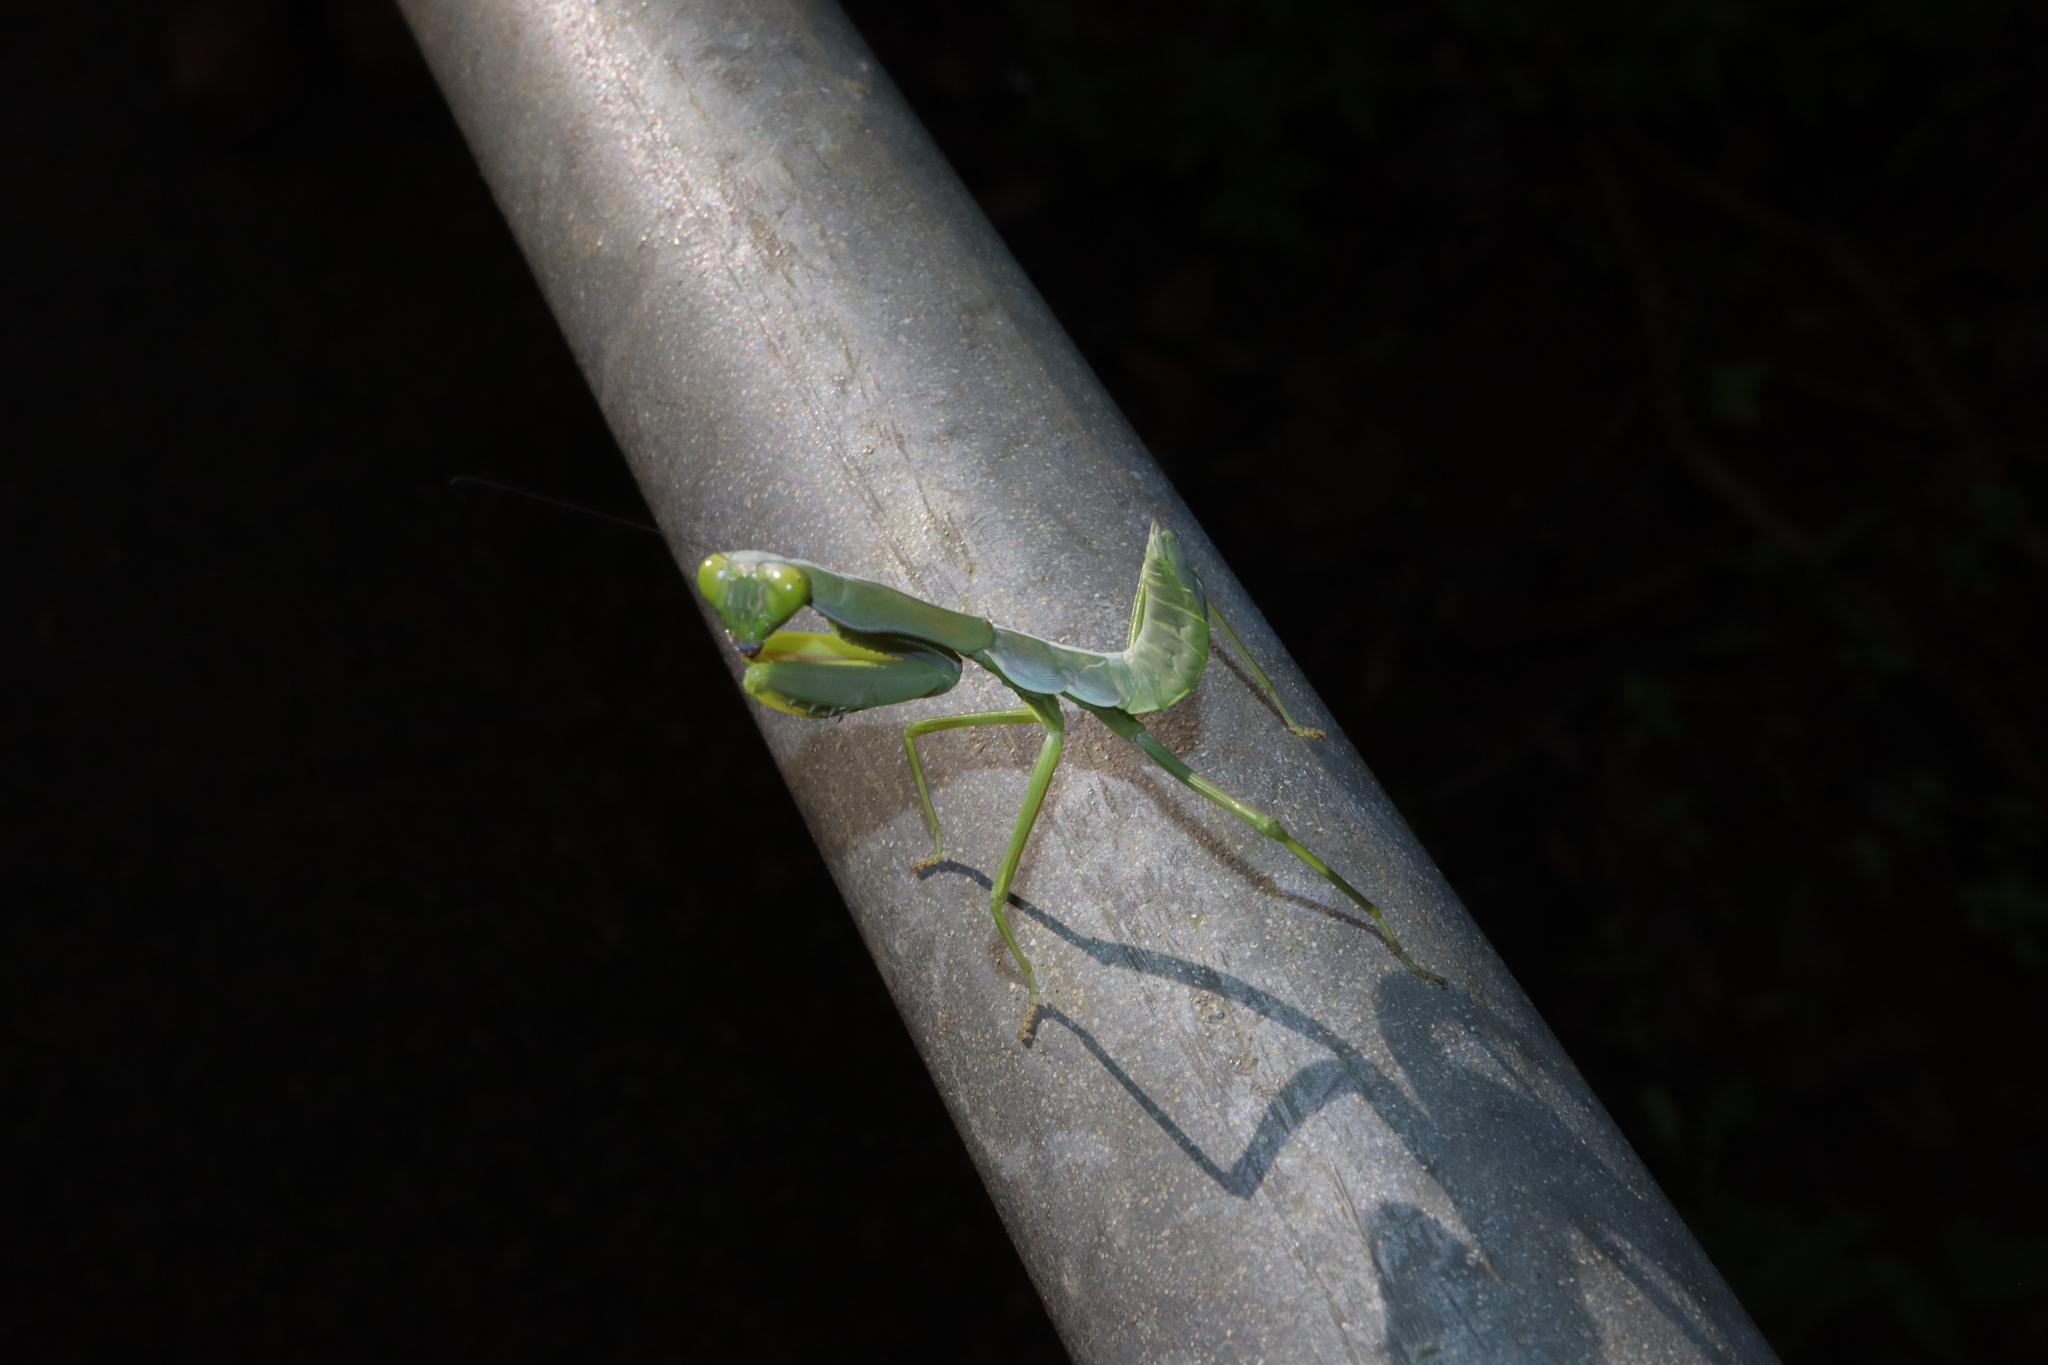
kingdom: Animalia
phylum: Arthropoda
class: Insecta
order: Mantodea
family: Mantidae
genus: Hierodula
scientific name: Hierodula majuscula
